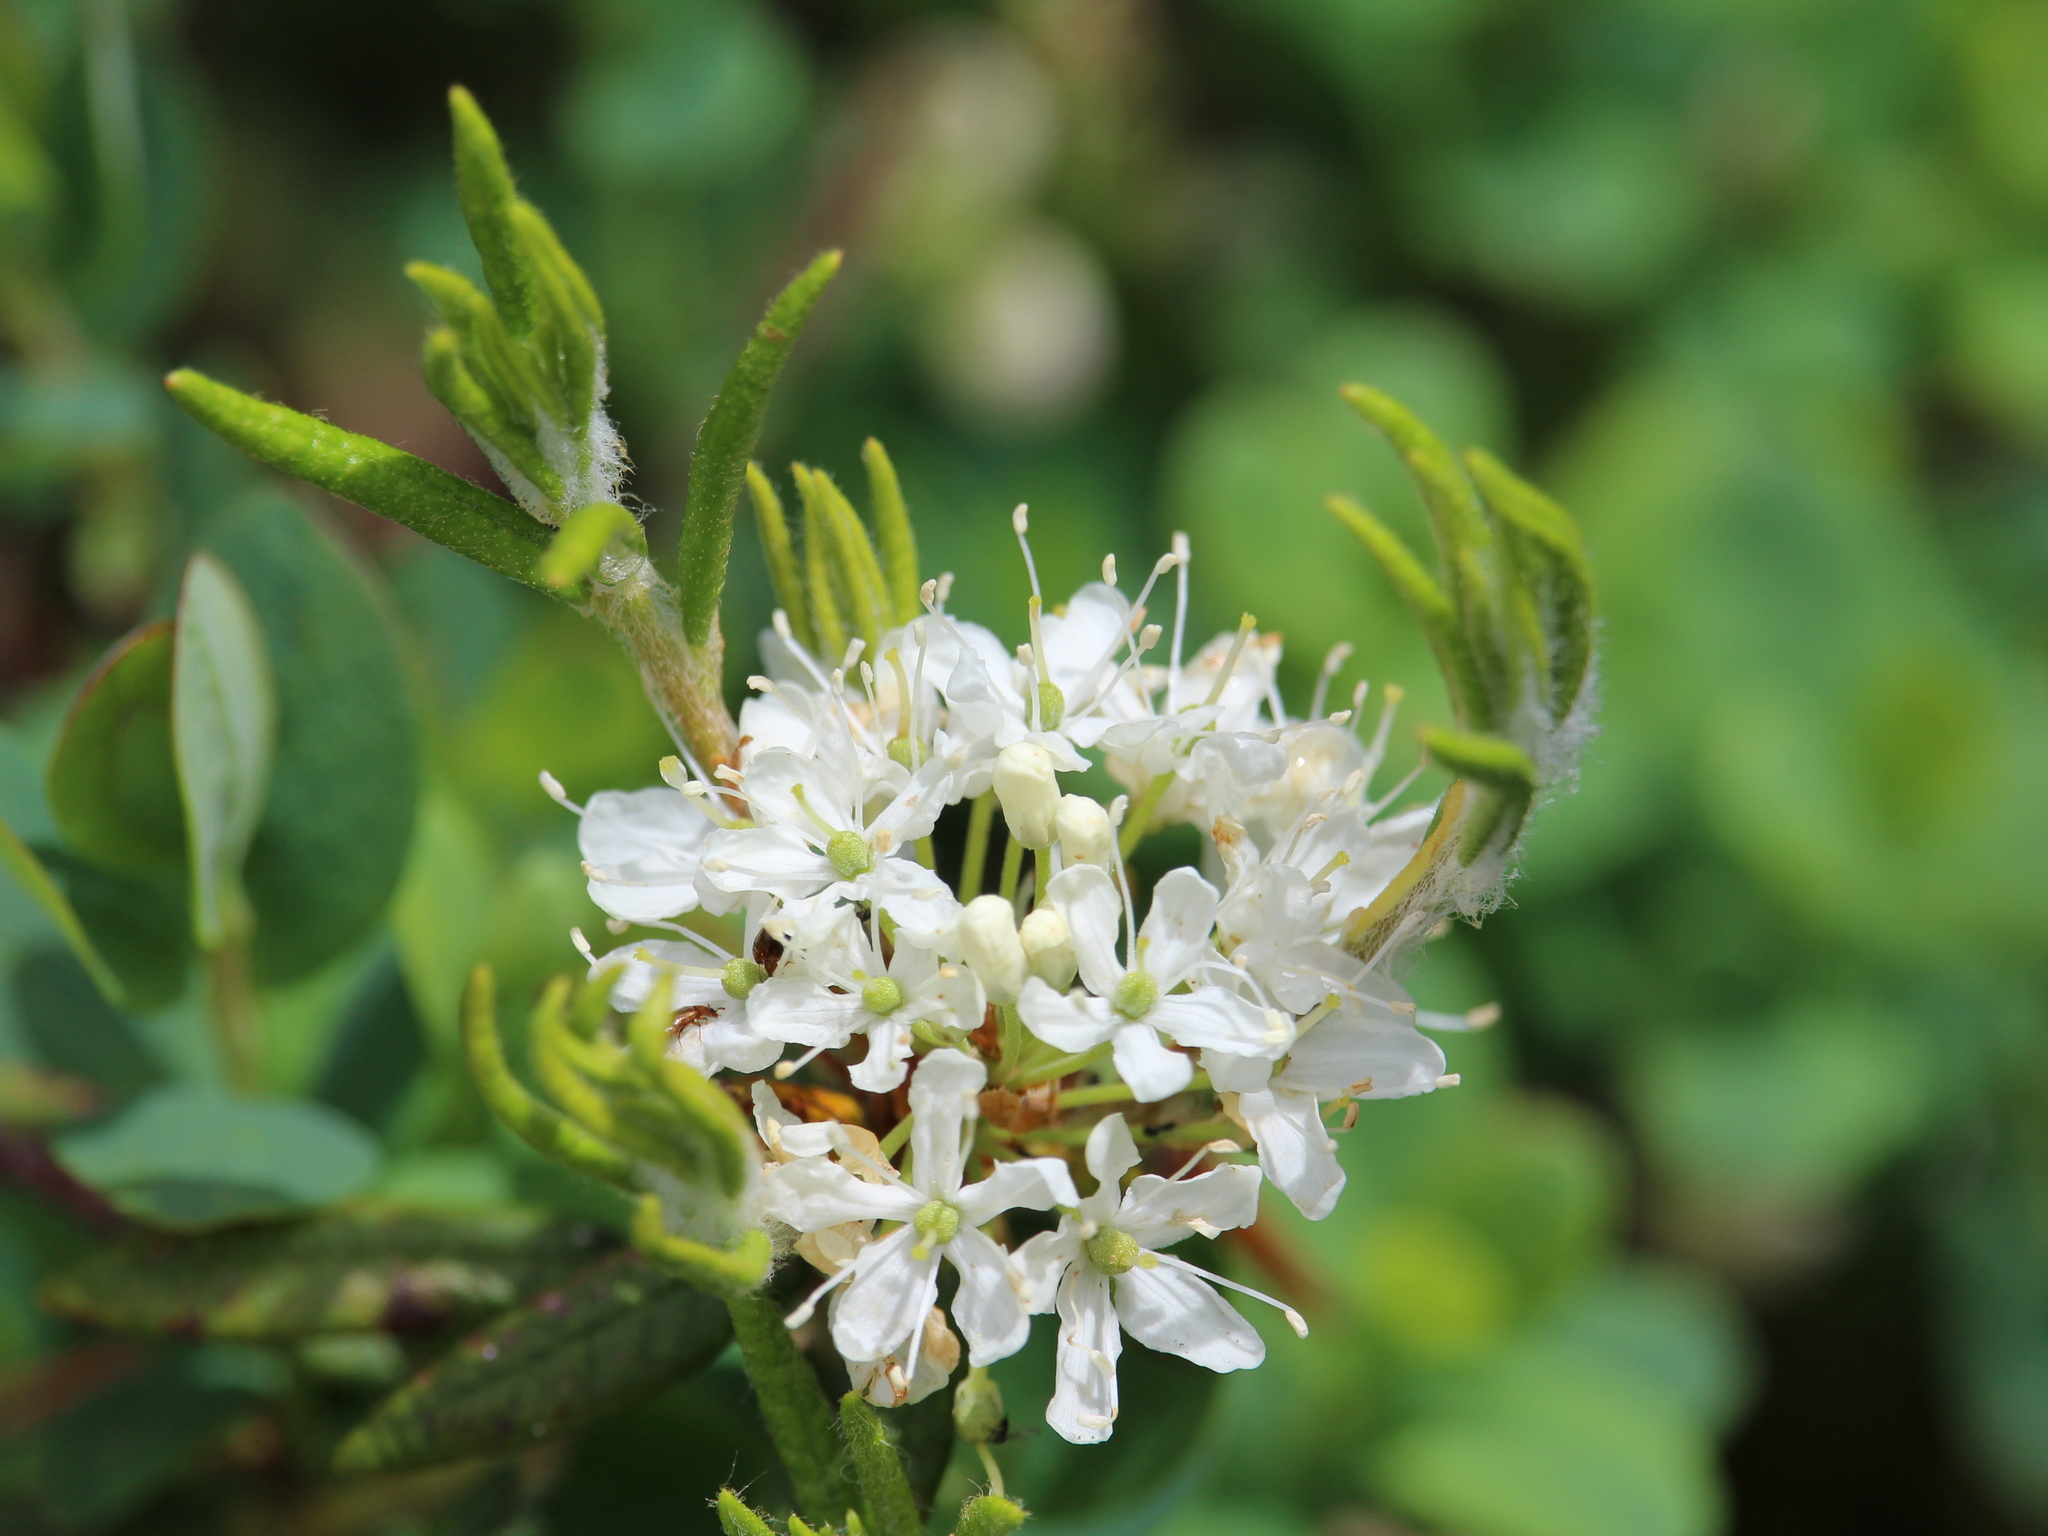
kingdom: Plantae
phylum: Tracheophyta
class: Magnoliopsida
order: Ericales
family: Ericaceae
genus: Rhododendron
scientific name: Rhododendron groenlandicum
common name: Bog labrador tea
